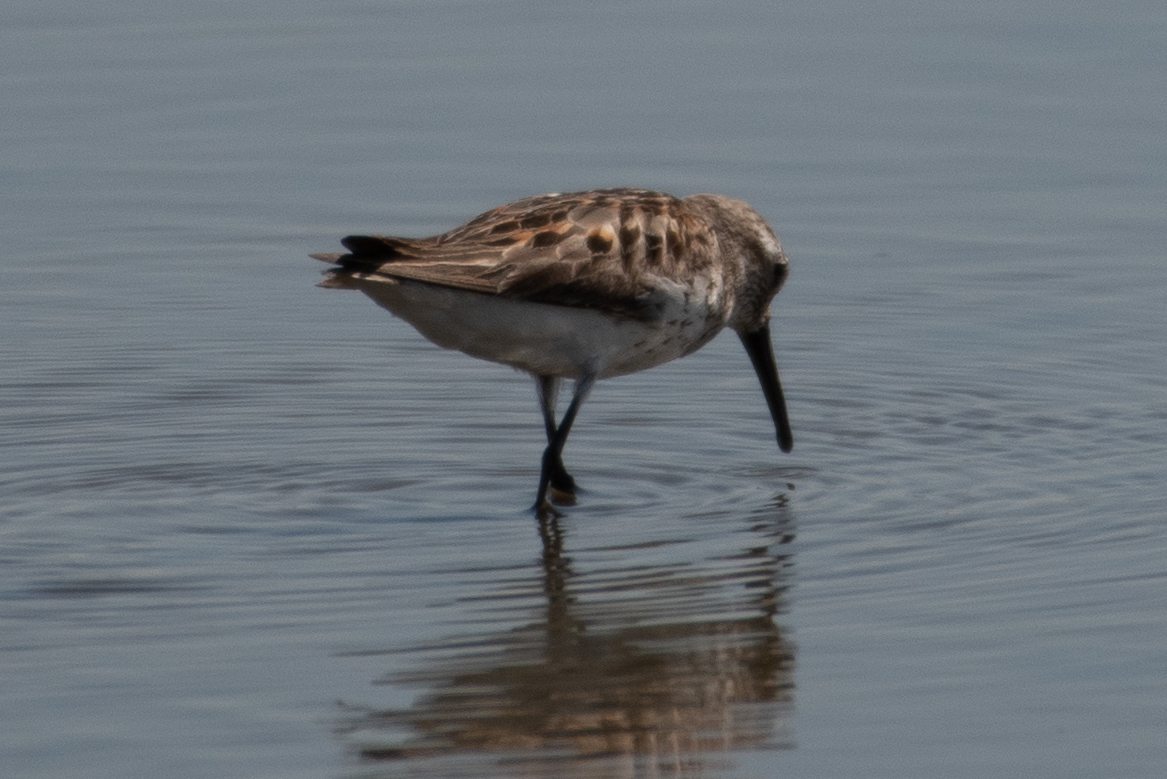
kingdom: Animalia
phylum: Chordata
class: Aves
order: Charadriiformes
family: Scolopacidae
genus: Calidris
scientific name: Calidris mauri
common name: Western sandpiper
